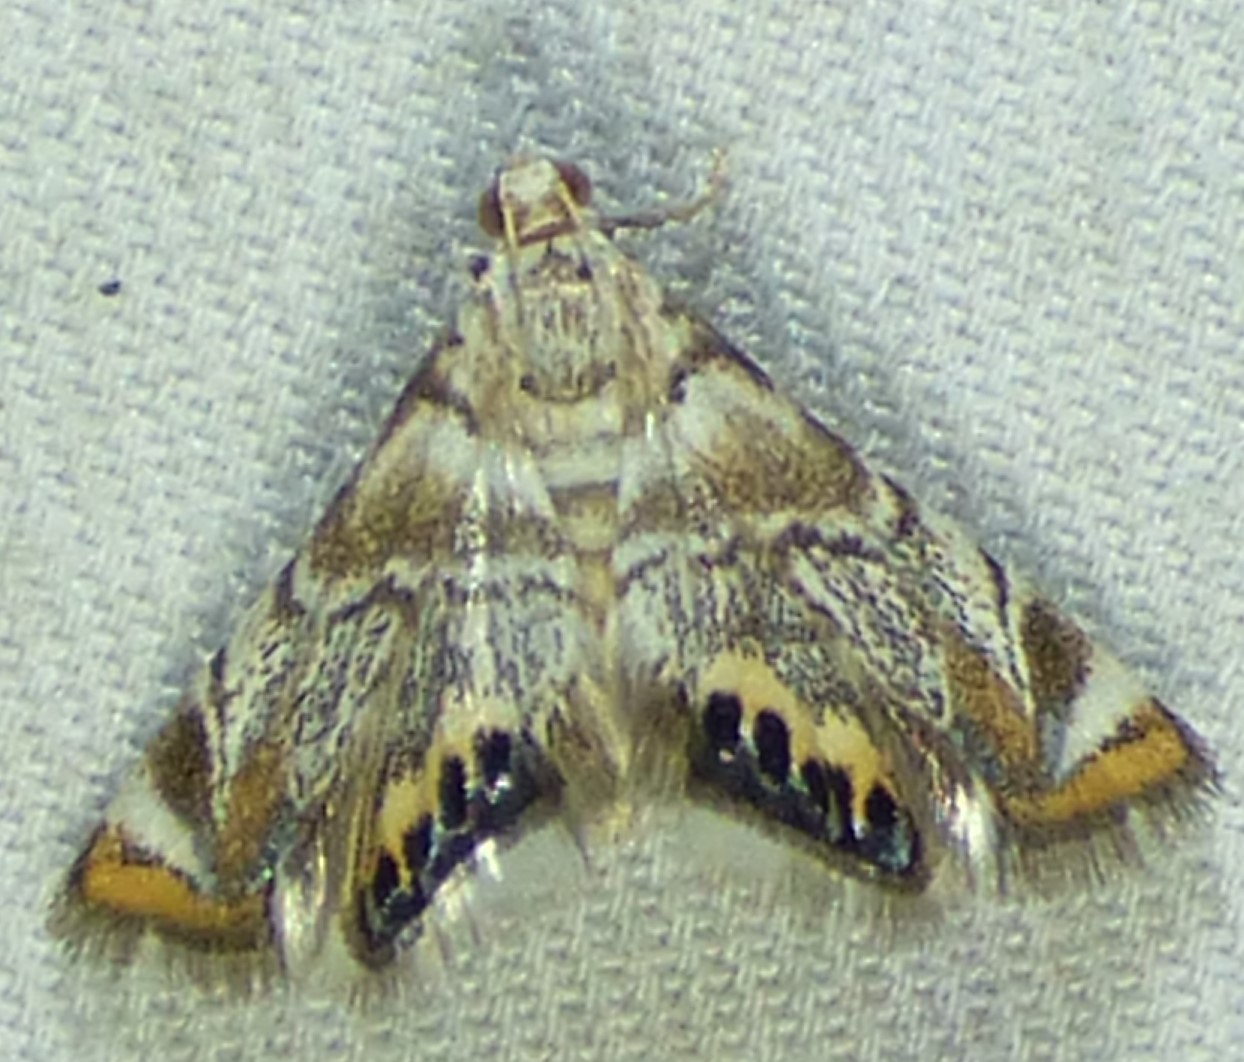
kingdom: Animalia
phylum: Arthropoda
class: Insecta
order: Lepidoptera
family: Crambidae
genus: Eoparargyractis
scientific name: Eoparargyractis irroratalis
